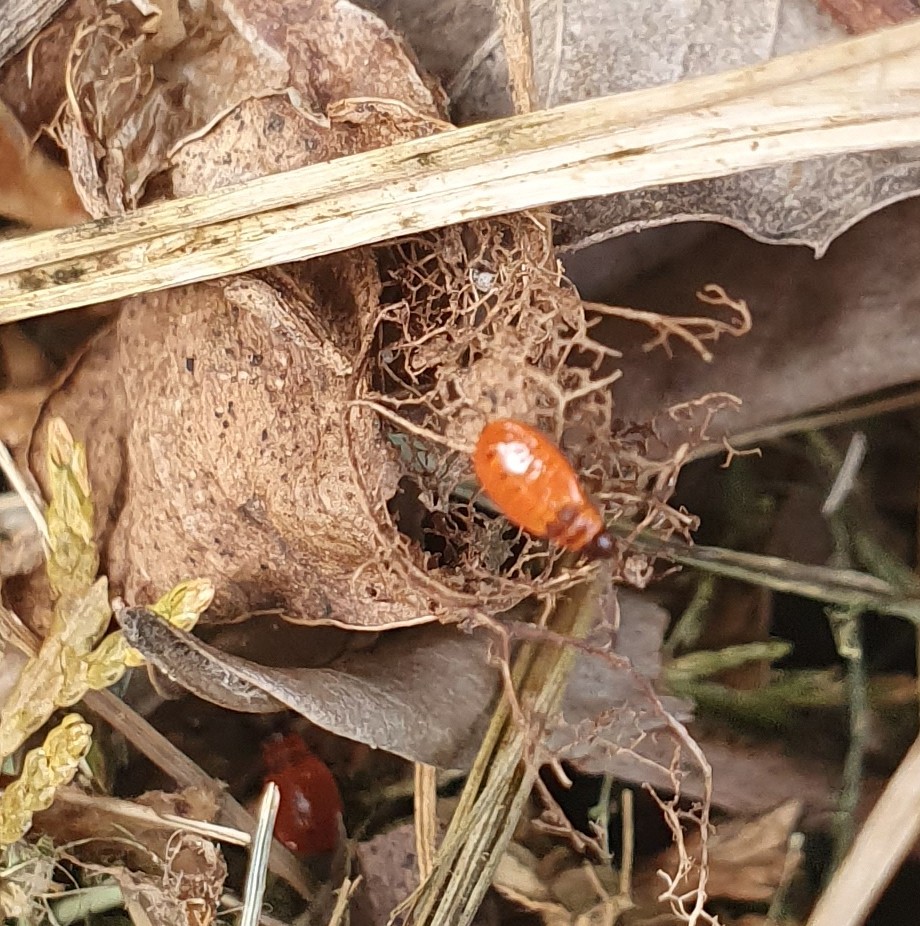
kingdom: Animalia
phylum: Arthropoda
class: Insecta
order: Hemiptera
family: Pyrrhocoridae
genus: Pyrrhocoris
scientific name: Pyrrhocoris apterus
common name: Firebug
